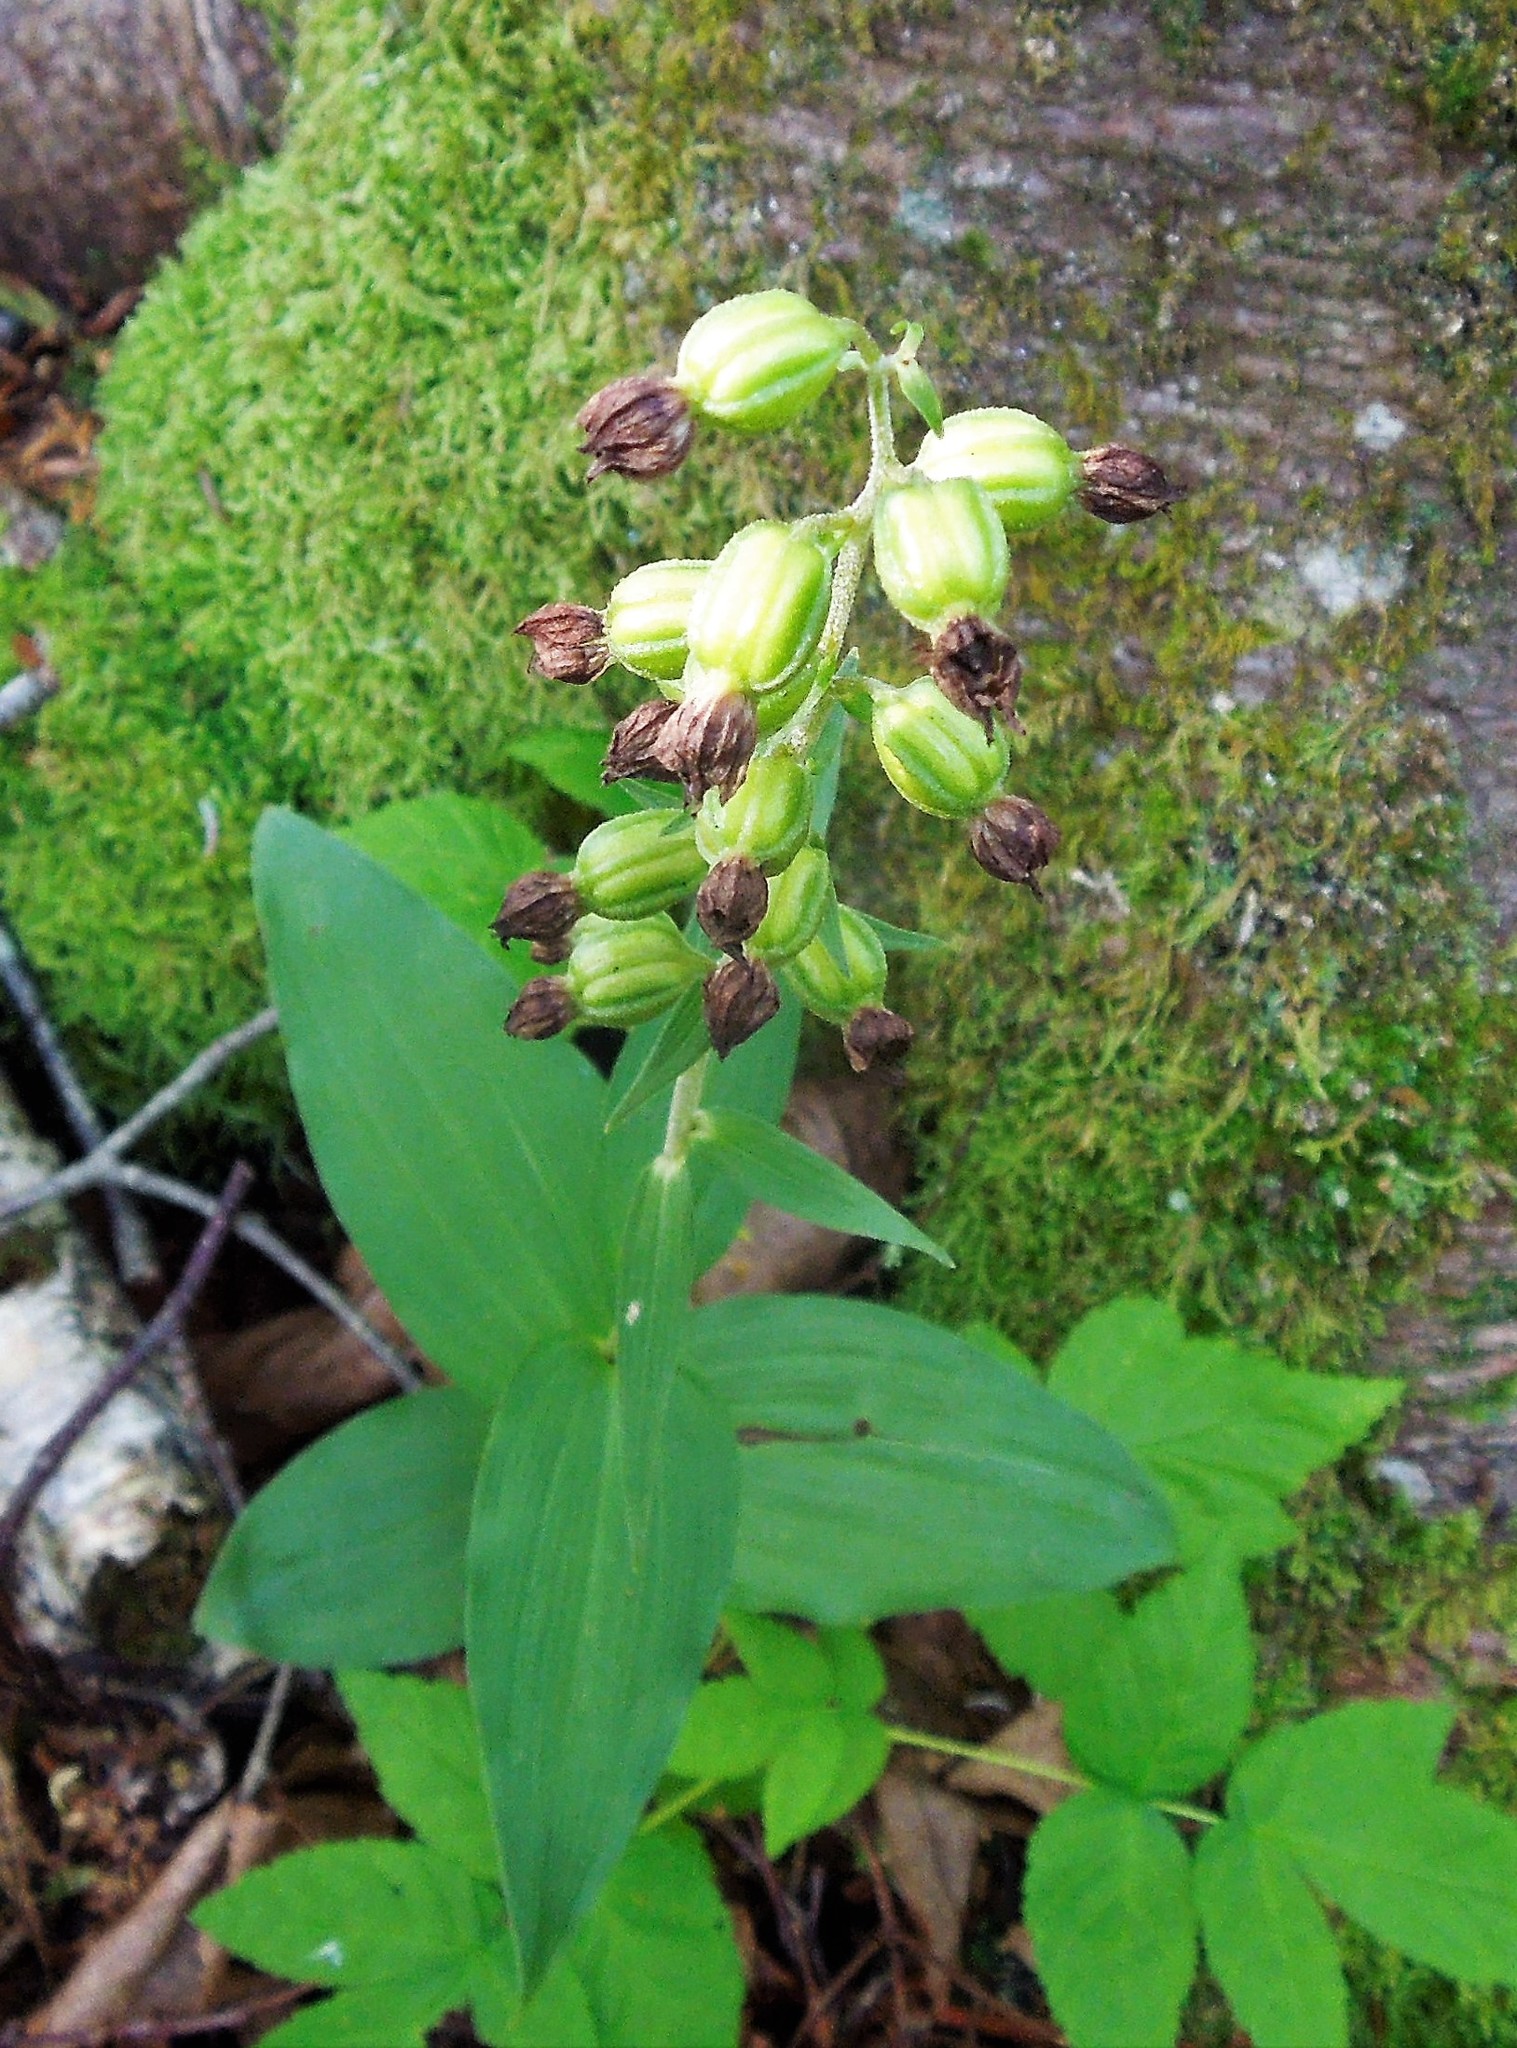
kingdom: Plantae
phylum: Tracheophyta
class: Liliopsida
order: Asparagales
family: Orchidaceae
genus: Epipactis
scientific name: Epipactis helleborine
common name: Broad-leaved helleborine
